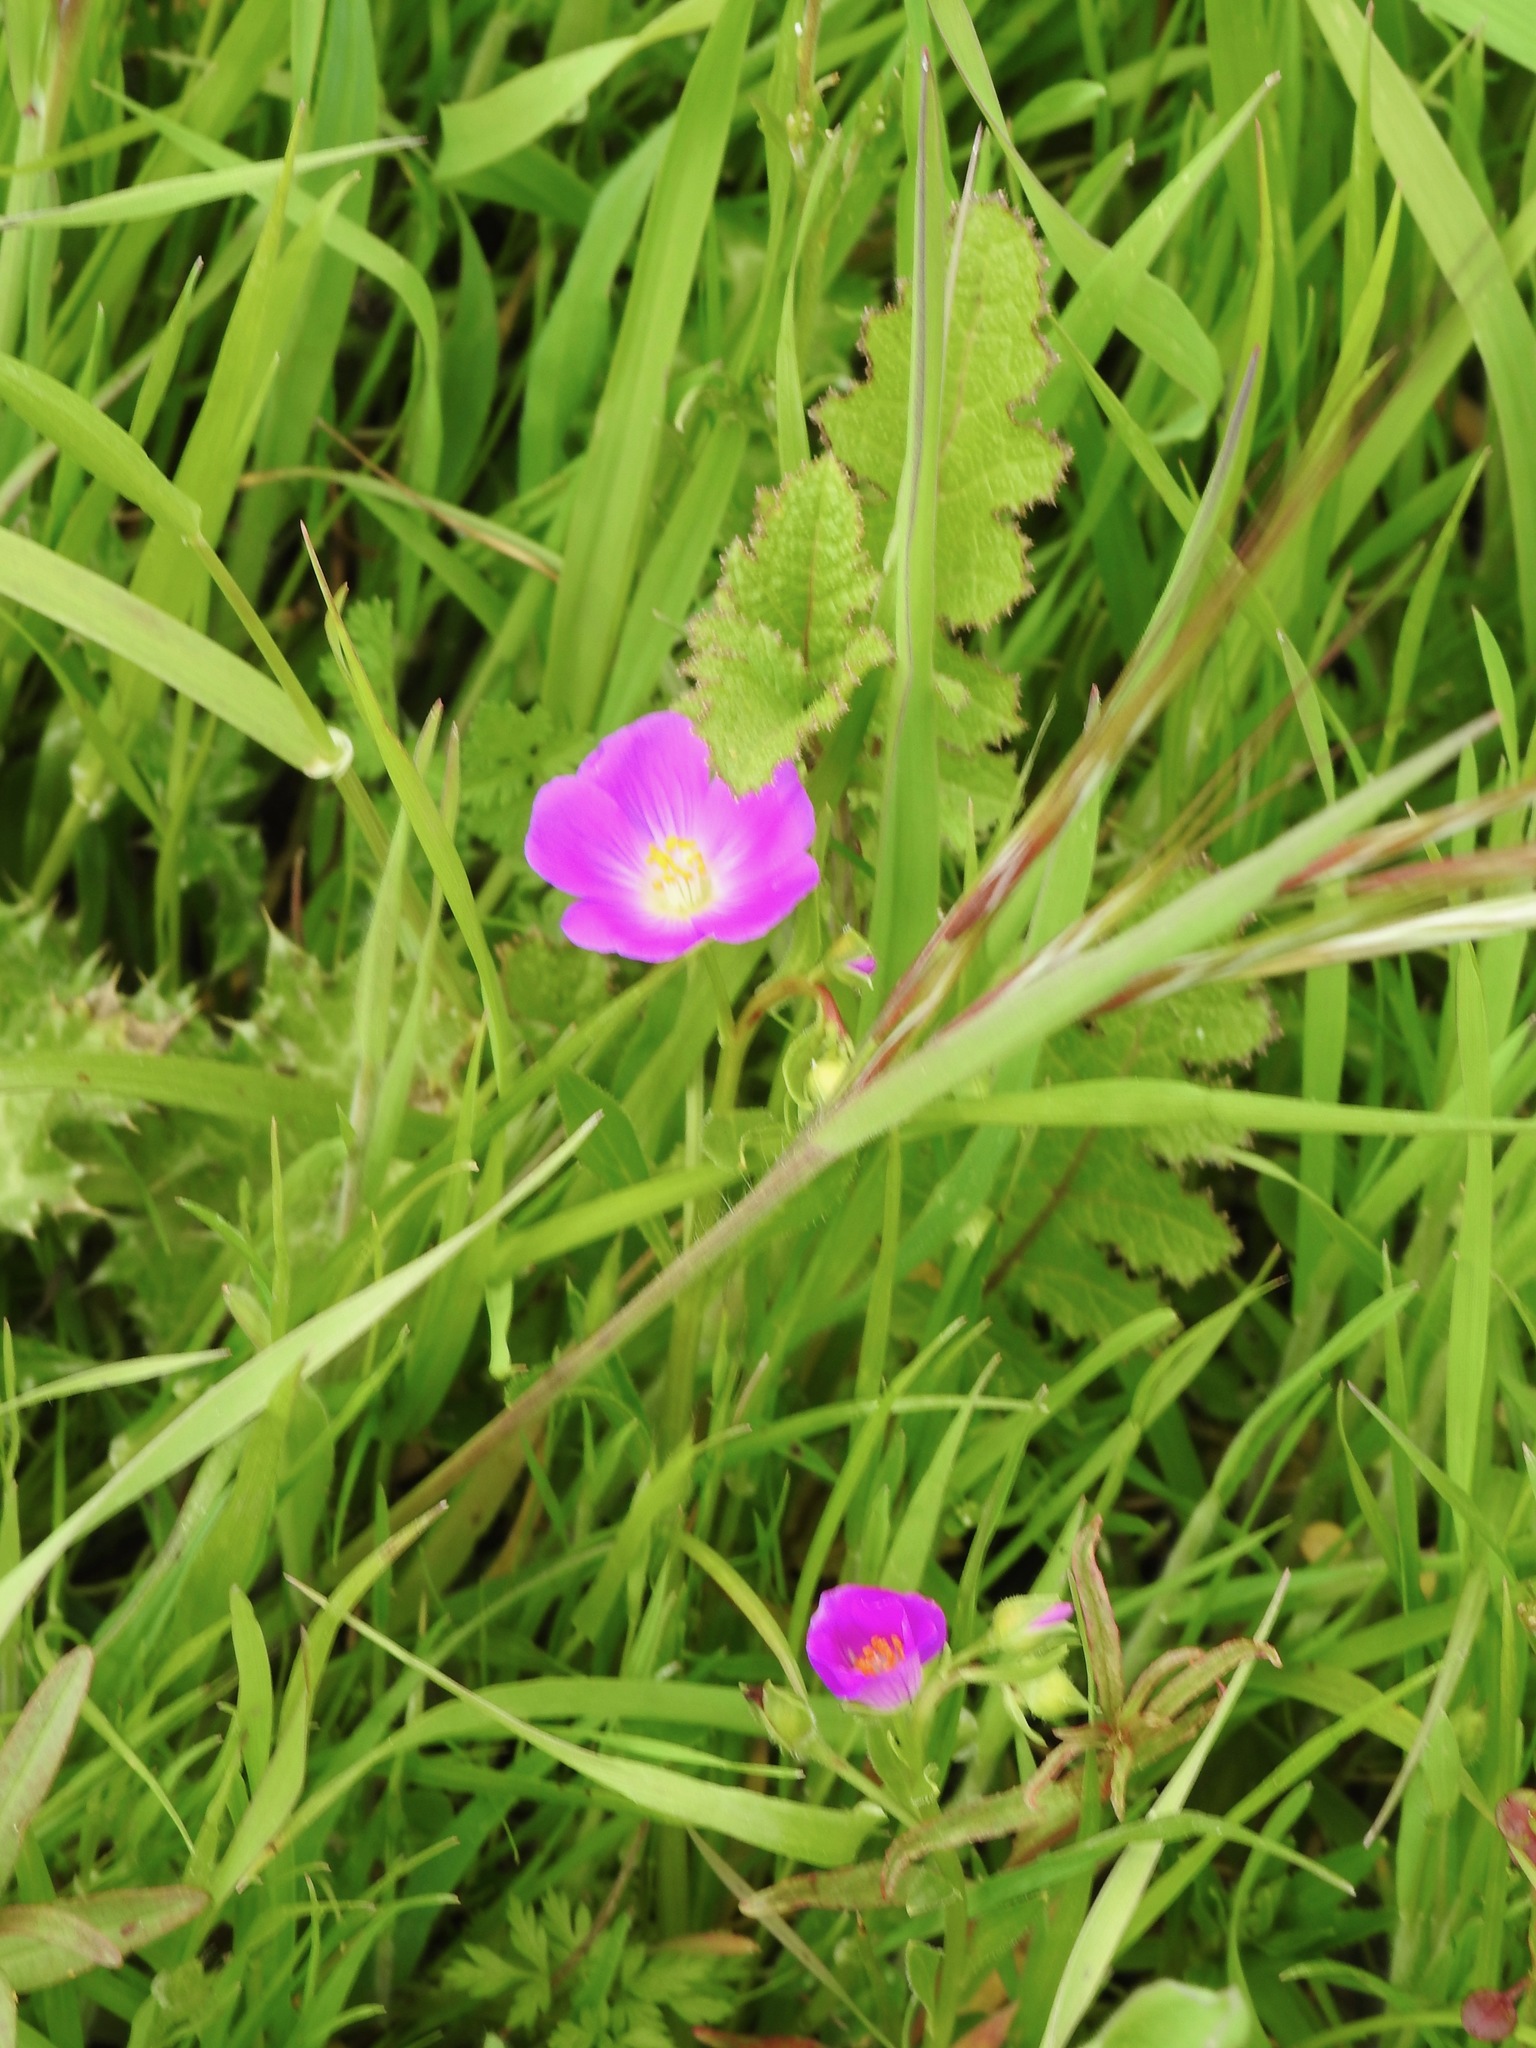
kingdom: Plantae
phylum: Tracheophyta
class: Magnoliopsida
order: Caryophyllales
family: Montiaceae
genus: Calandrinia
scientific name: Calandrinia menziesii
